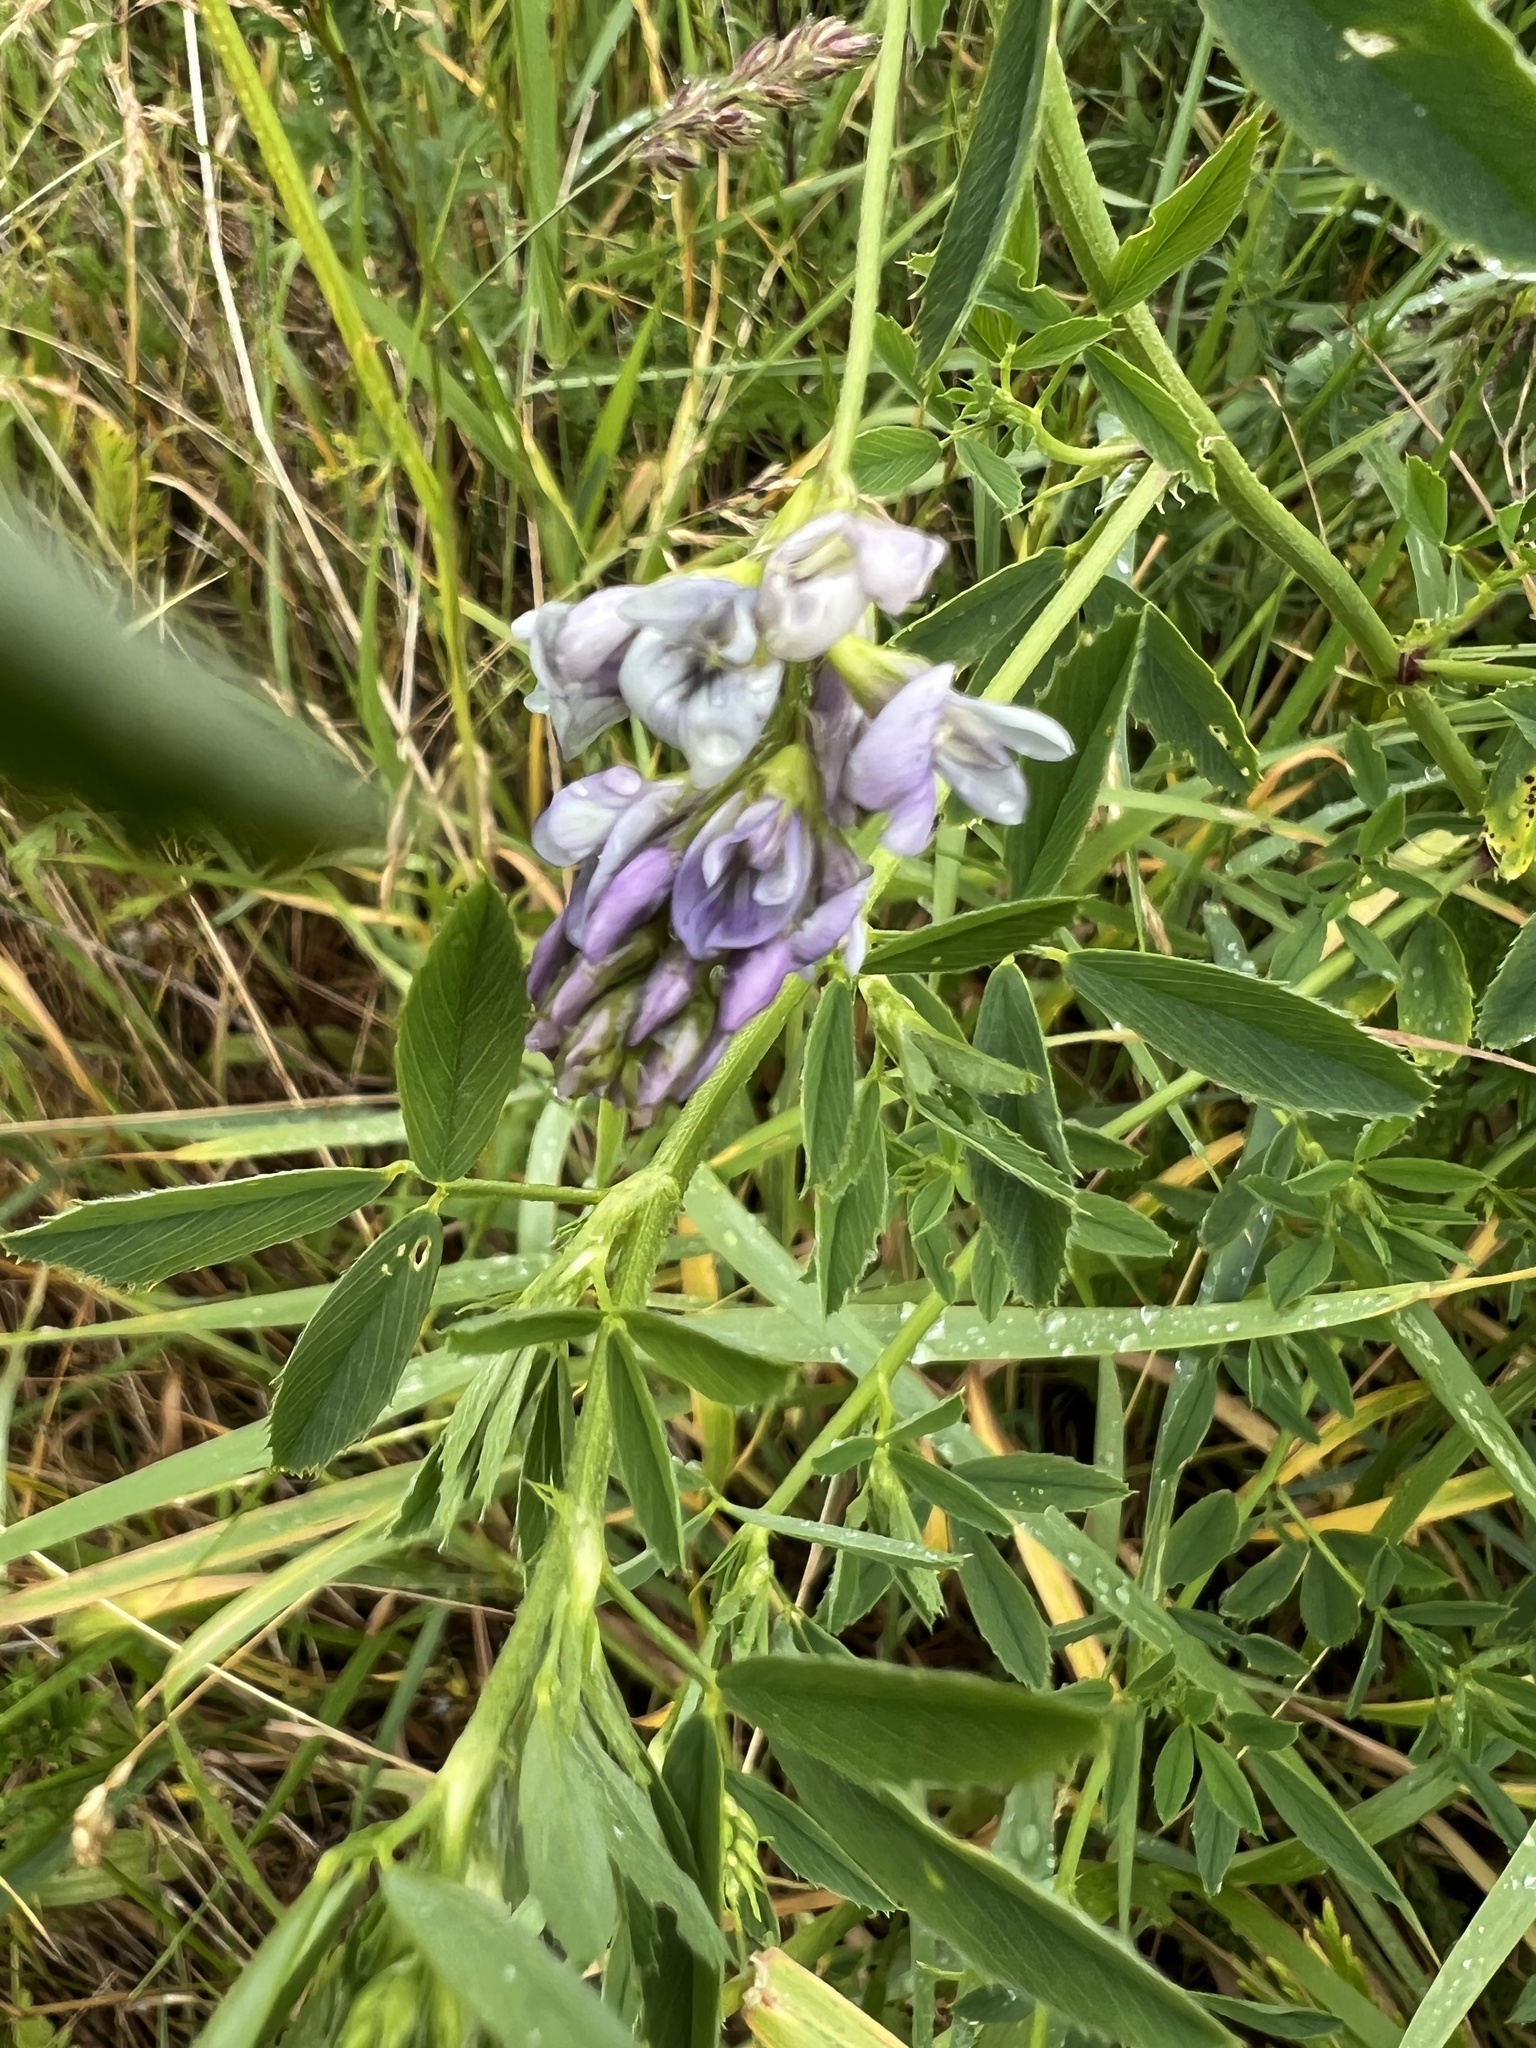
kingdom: Plantae
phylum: Tracheophyta
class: Magnoliopsida
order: Fabales
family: Fabaceae
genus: Medicago
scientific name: Medicago sativa
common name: Alfalfa
